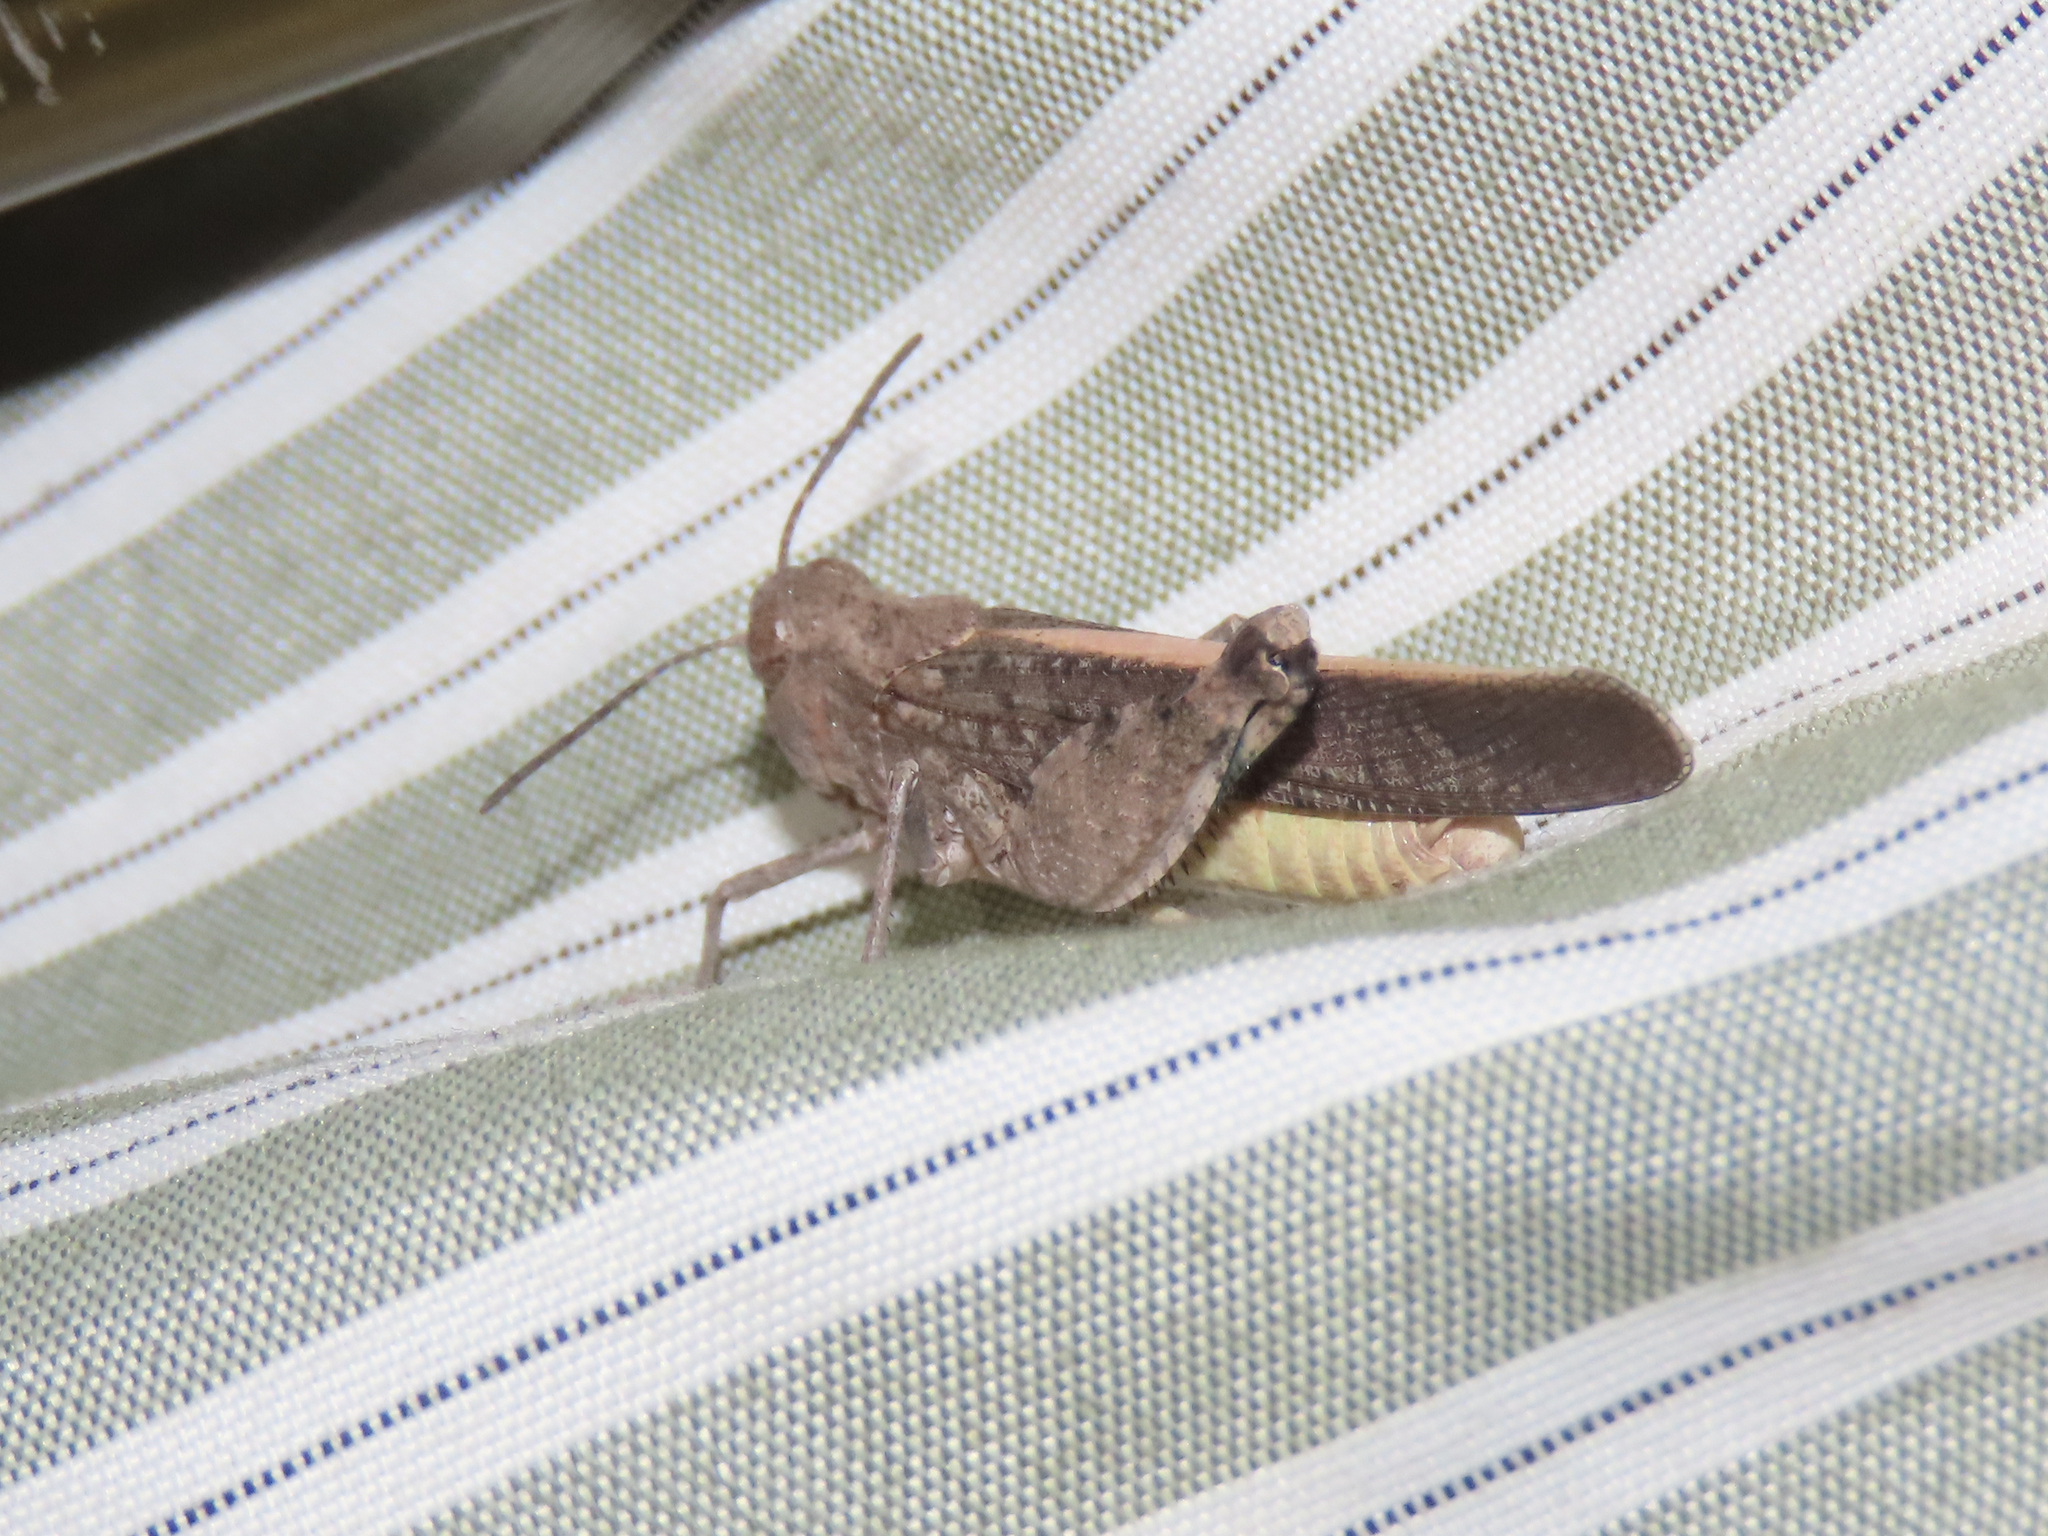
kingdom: Animalia
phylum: Arthropoda
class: Insecta
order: Orthoptera
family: Acrididae
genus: Arphia
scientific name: Arphia conspersa
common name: Speckle-winged rangeland grasshopper
